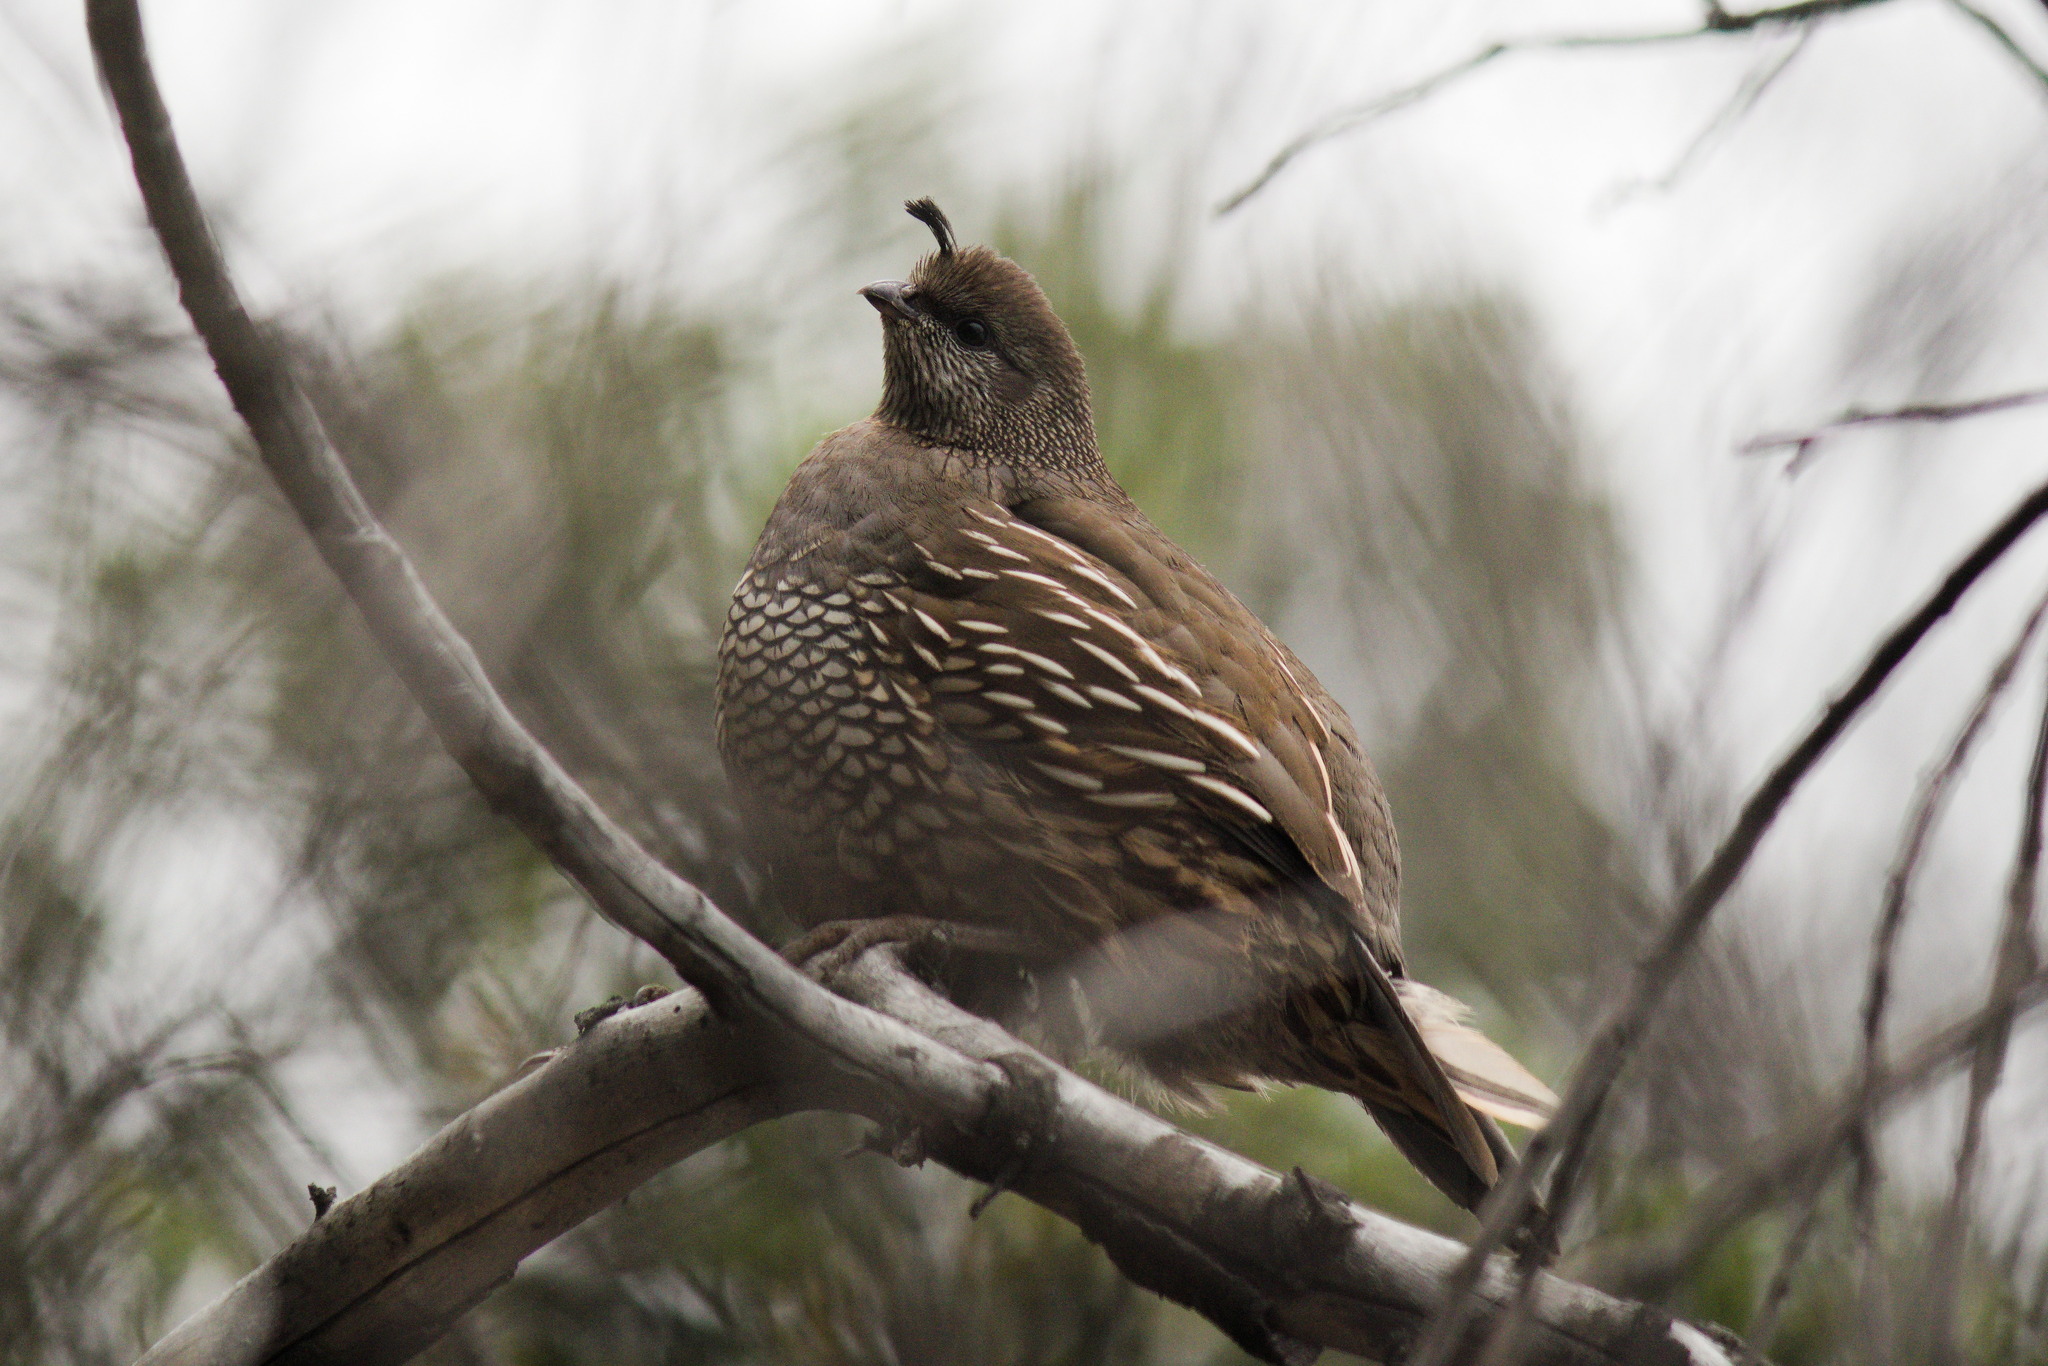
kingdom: Animalia
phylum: Chordata
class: Aves
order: Galliformes
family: Odontophoridae
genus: Callipepla
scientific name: Callipepla californica
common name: California quail
